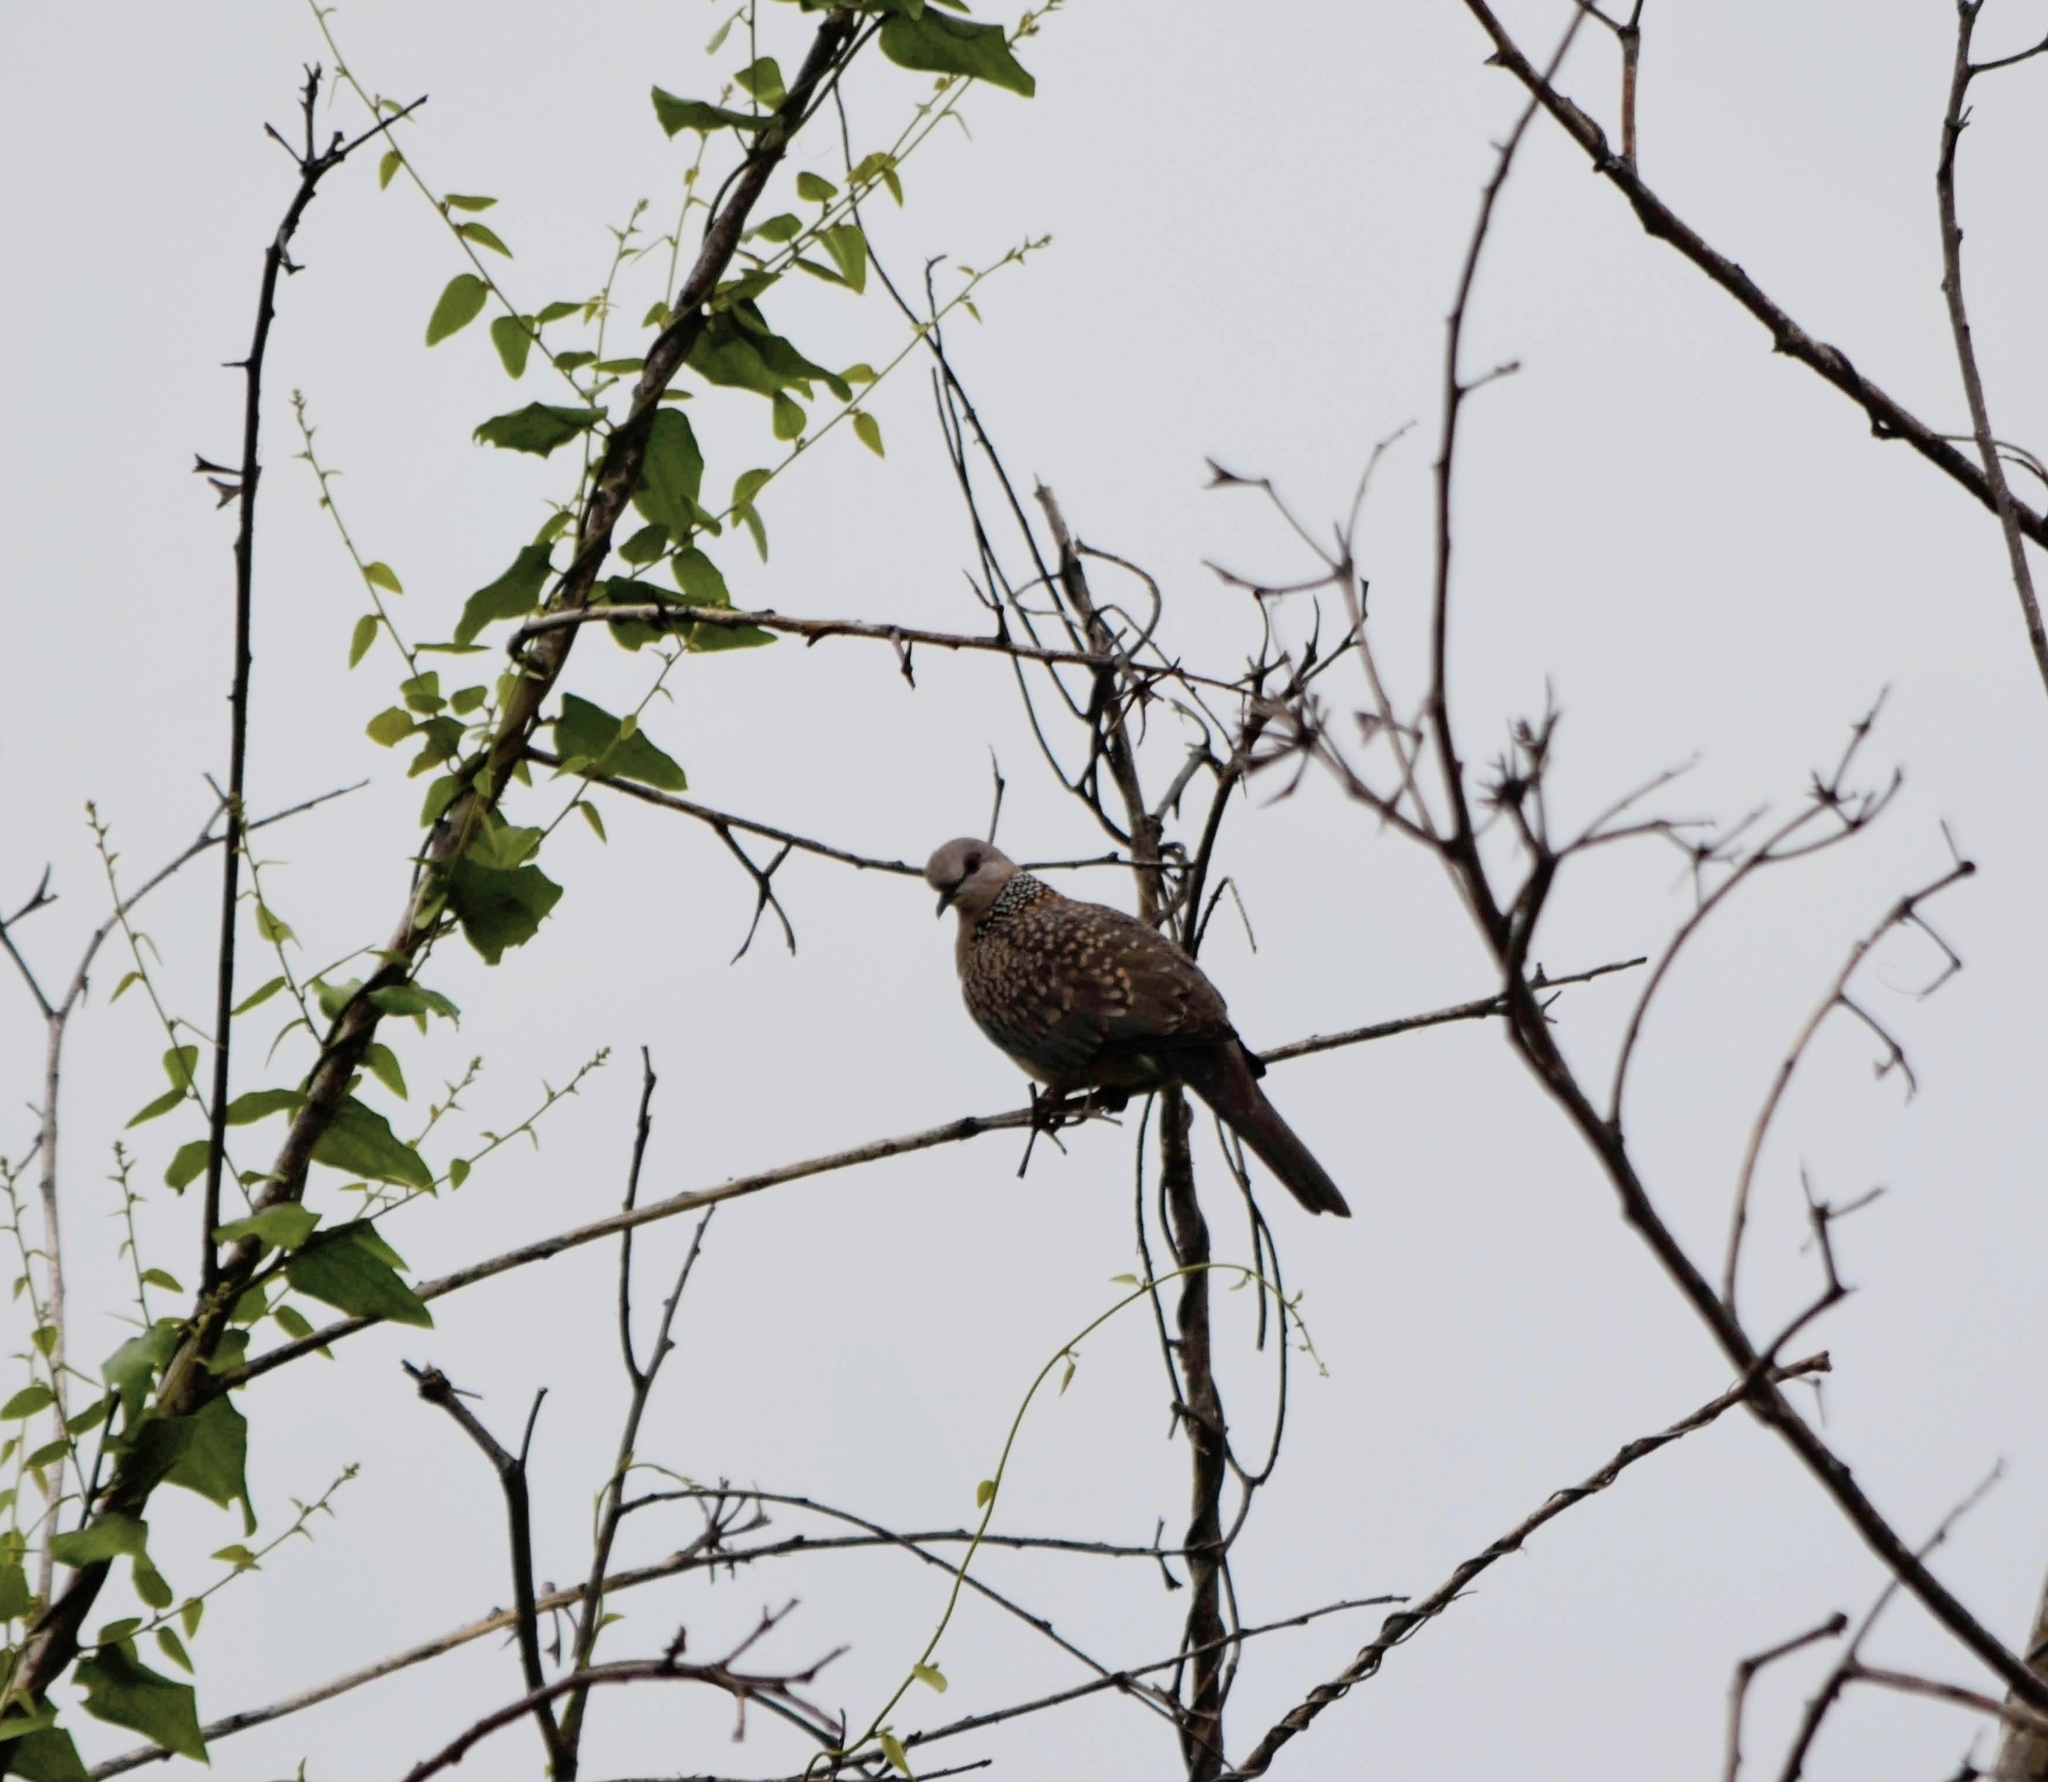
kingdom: Animalia
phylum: Chordata
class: Aves
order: Columbiformes
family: Columbidae
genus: Spilopelia
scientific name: Spilopelia chinensis
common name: Spotted dove
